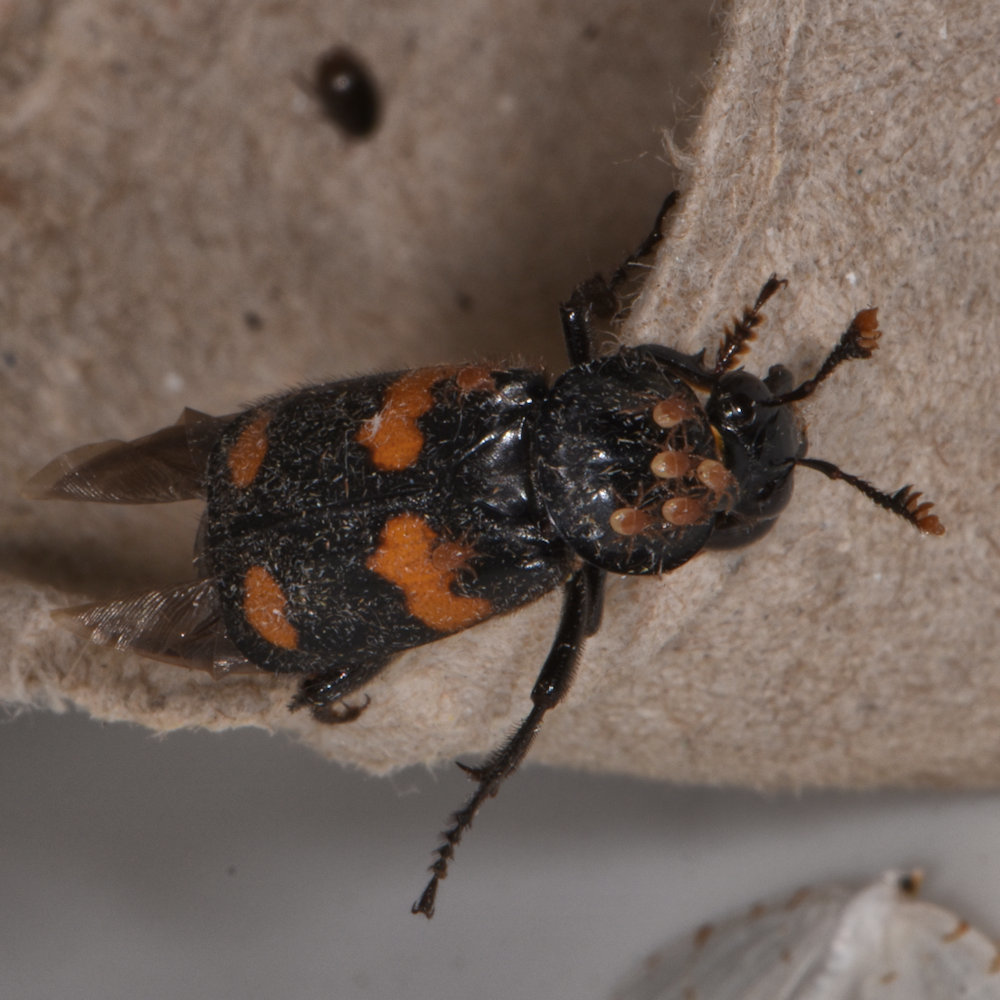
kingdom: Animalia
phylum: Arthropoda
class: Insecta
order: Coleoptera
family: Staphylinidae
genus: Nicrophorus
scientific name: Nicrophorus orbicollis
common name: Roundneck sexton beetle
